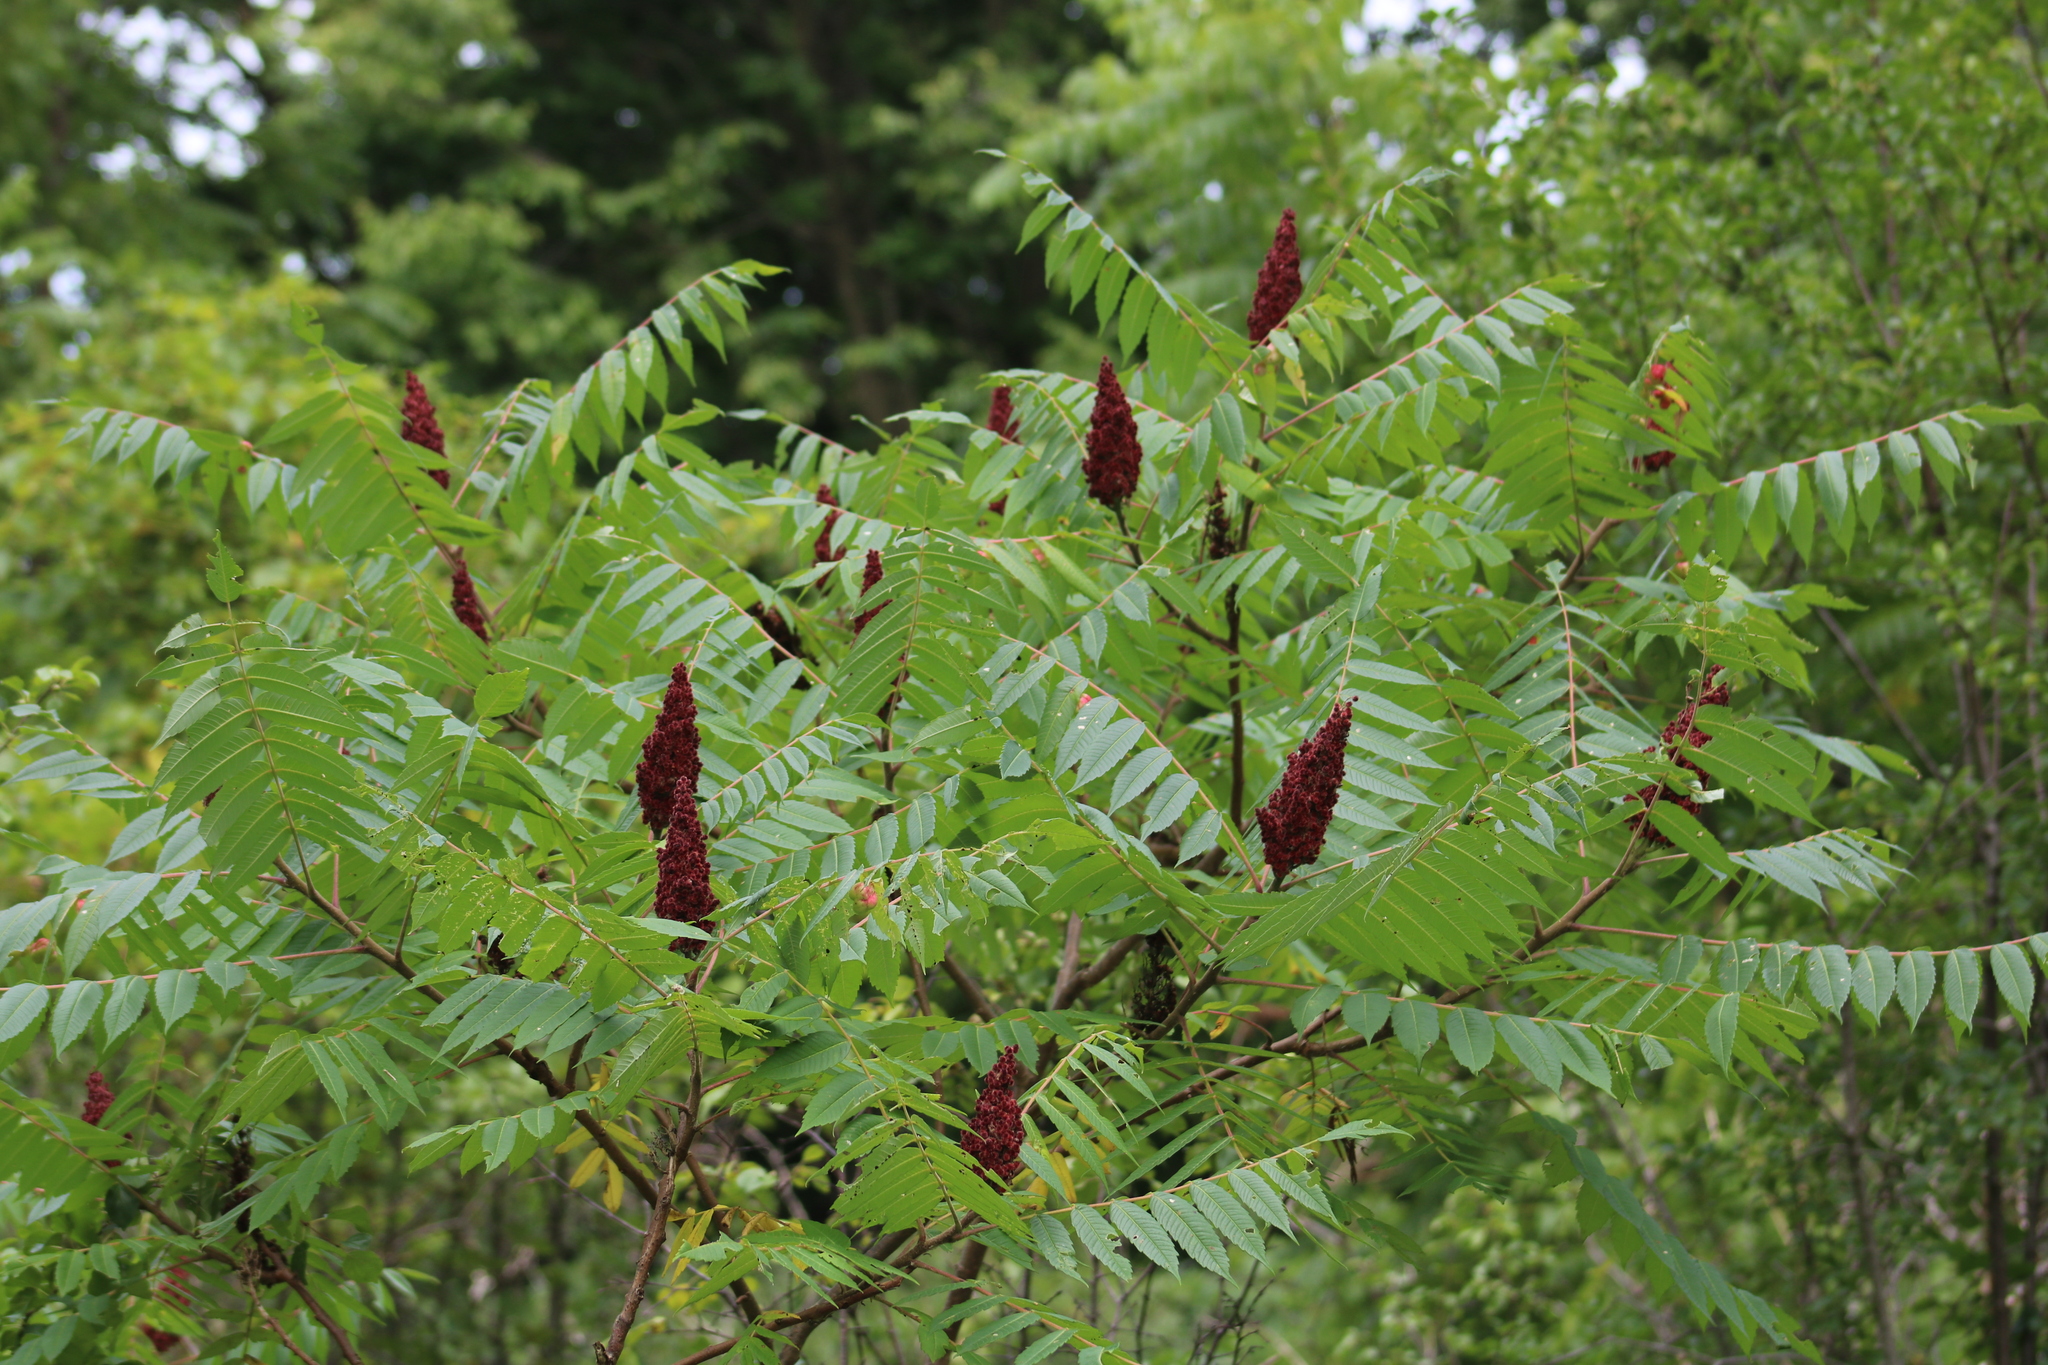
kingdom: Plantae
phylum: Tracheophyta
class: Magnoliopsida
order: Sapindales
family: Anacardiaceae
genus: Rhus
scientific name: Rhus typhina
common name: Staghorn sumac
